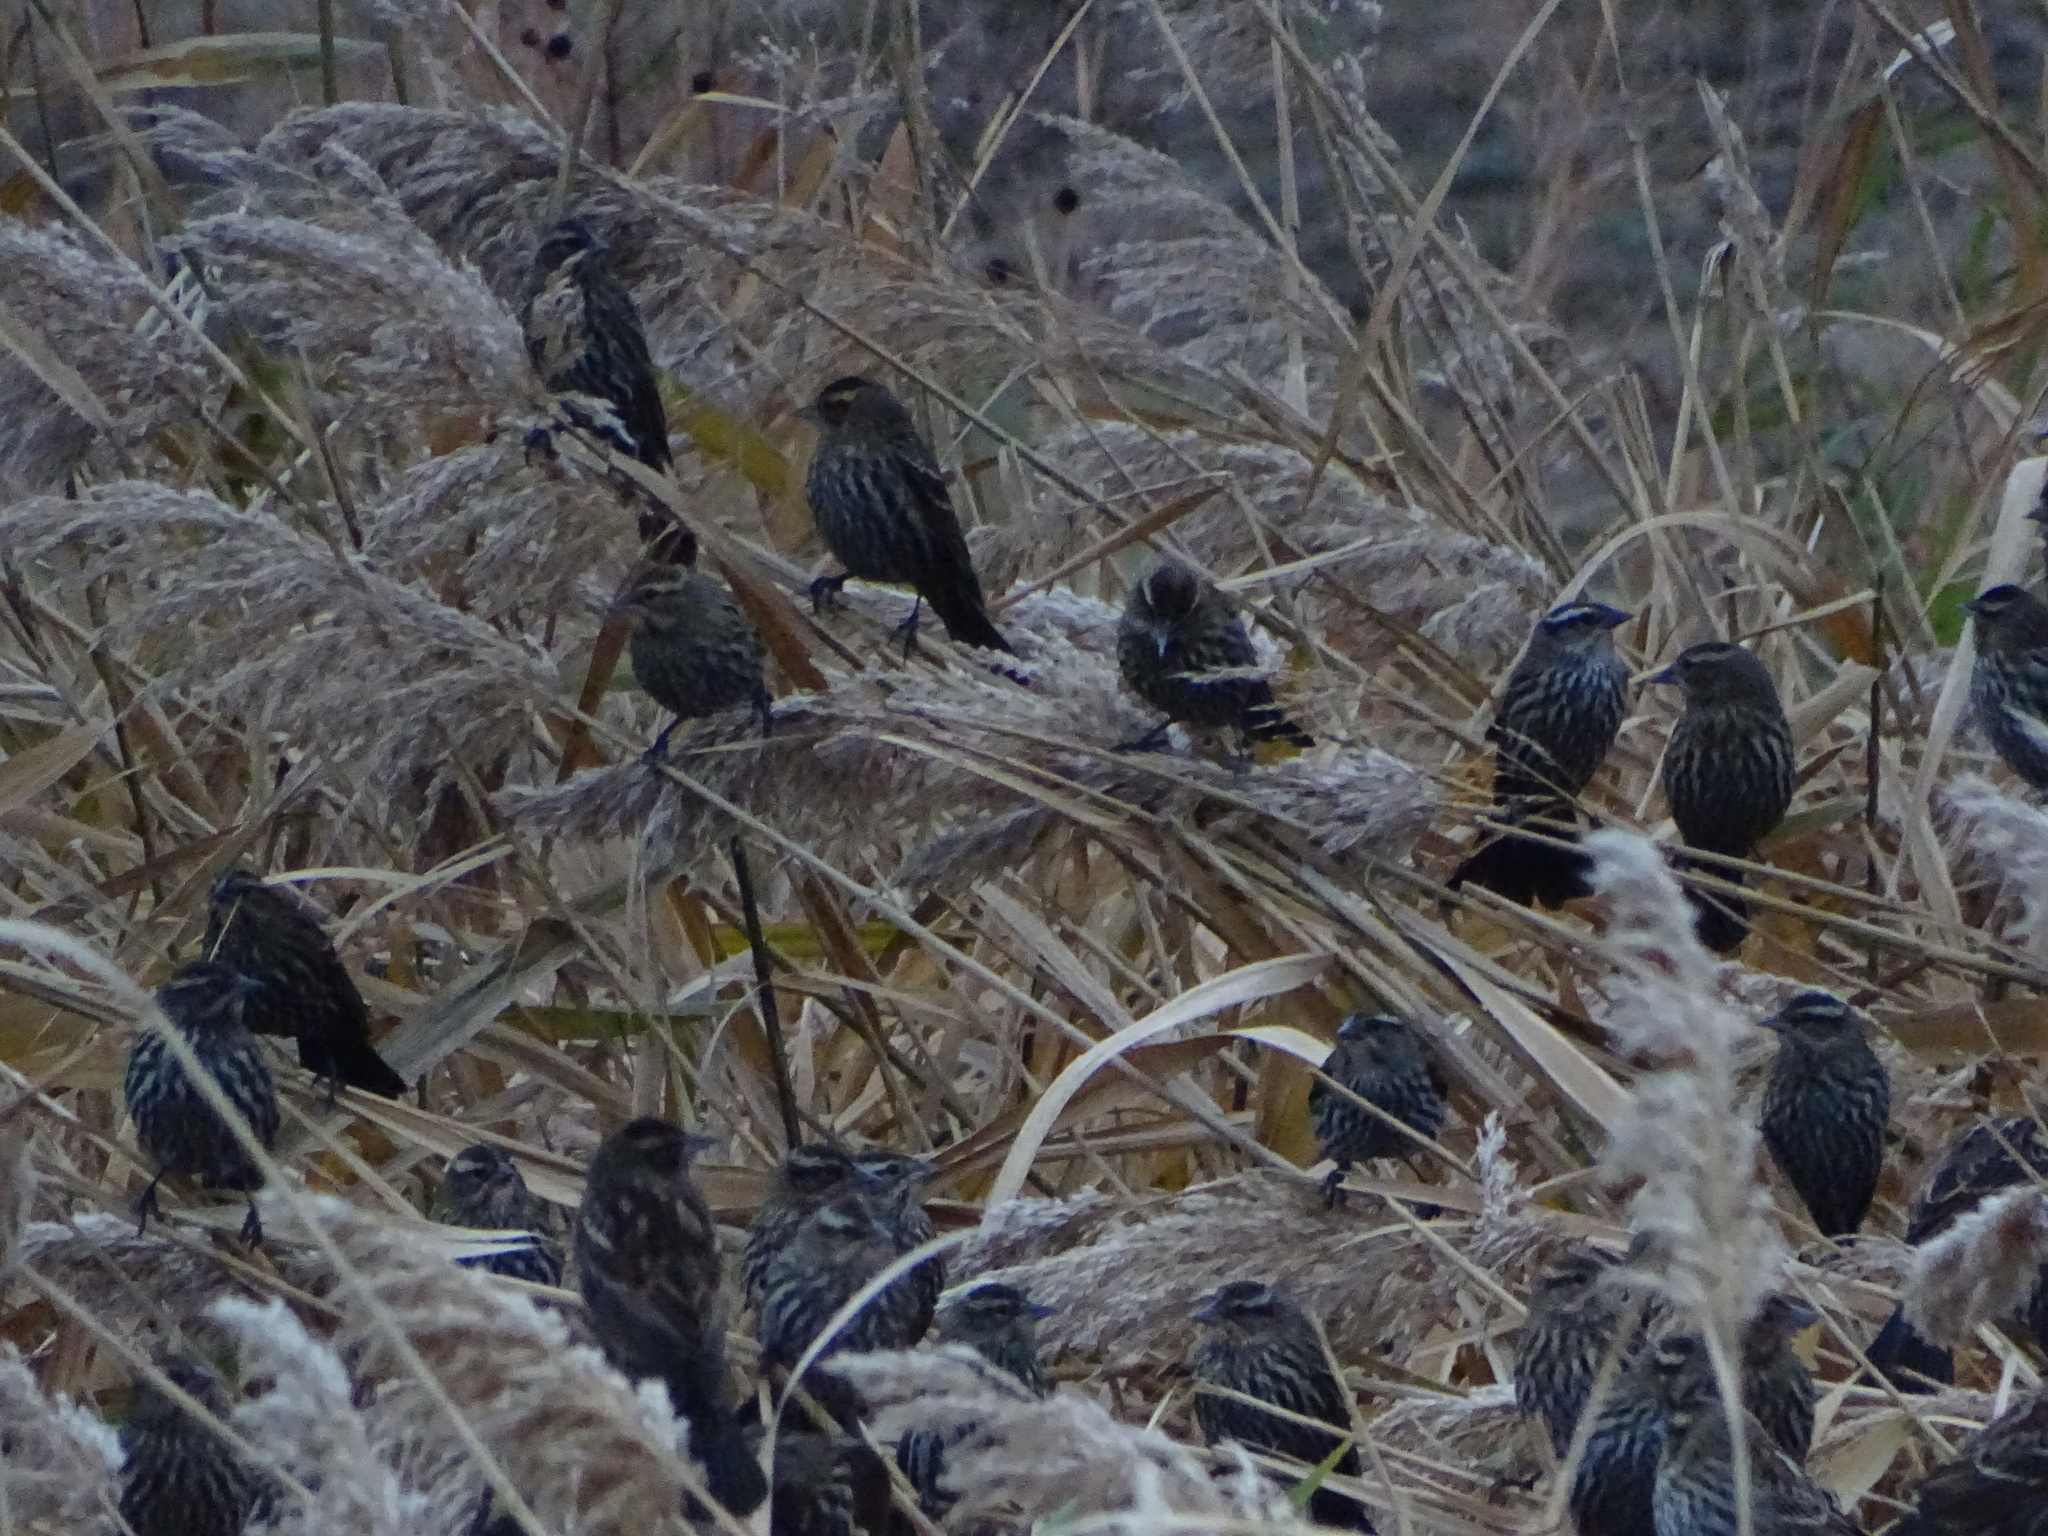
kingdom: Animalia
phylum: Chordata
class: Aves
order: Passeriformes
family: Icteridae
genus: Agelaius
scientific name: Agelaius phoeniceus
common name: Red-winged blackbird
